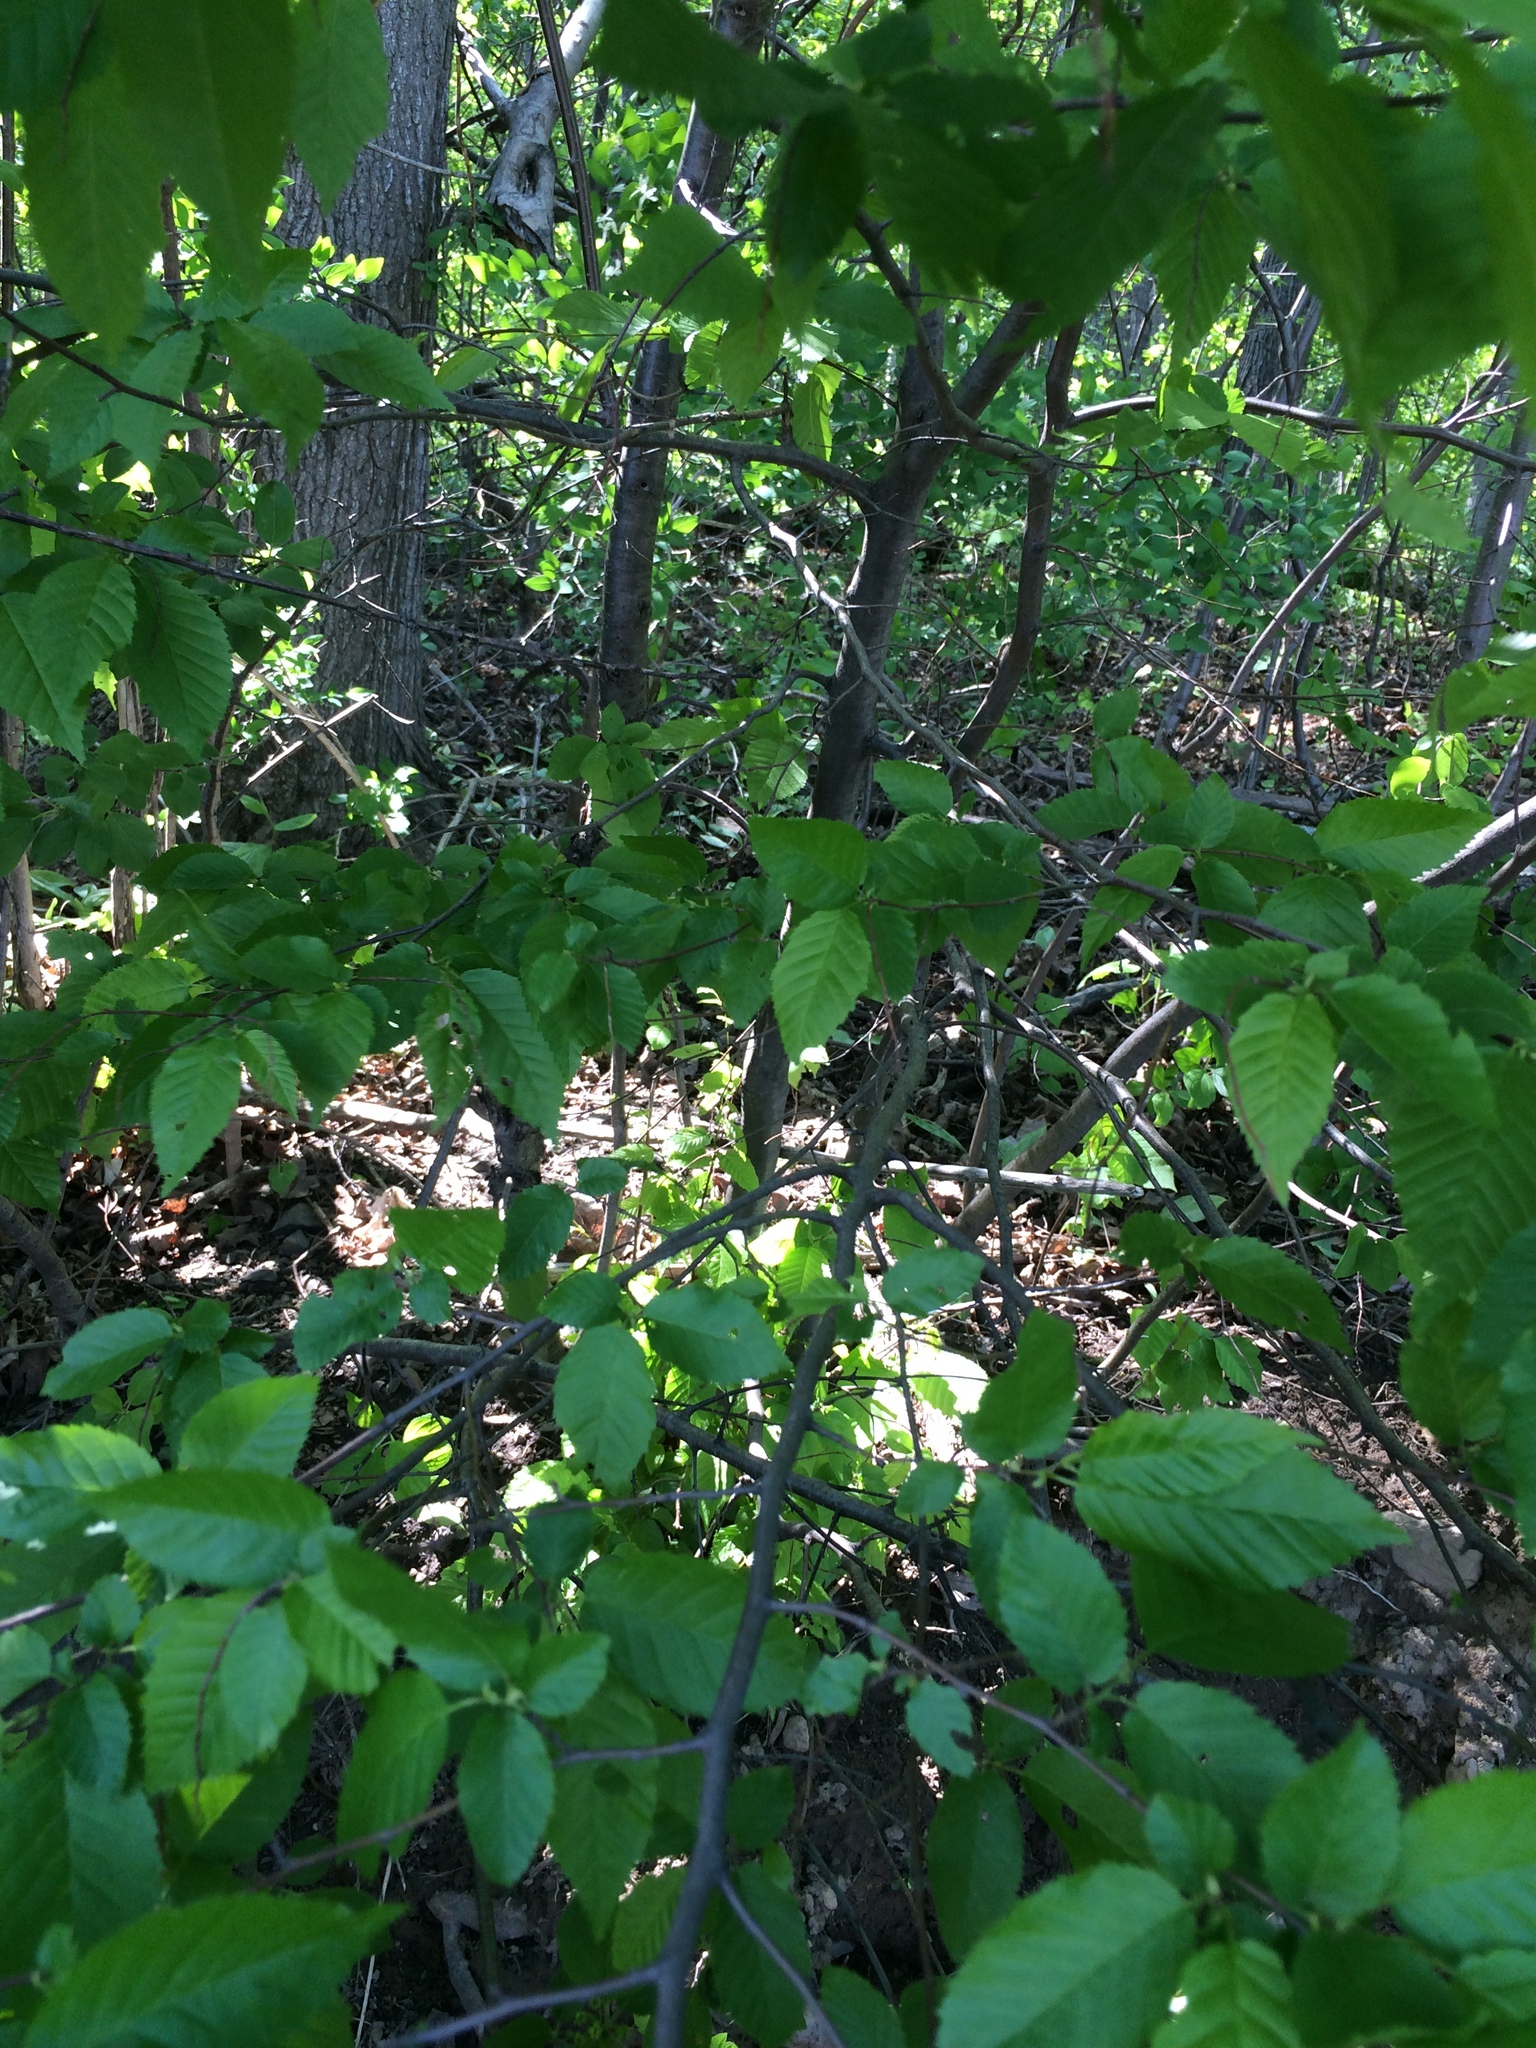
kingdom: Plantae
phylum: Tracheophyta
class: Magnoliopsida
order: Fagales
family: Betulaceae
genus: Carpinus
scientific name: Carpinus caroliniana
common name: American hornbeam
